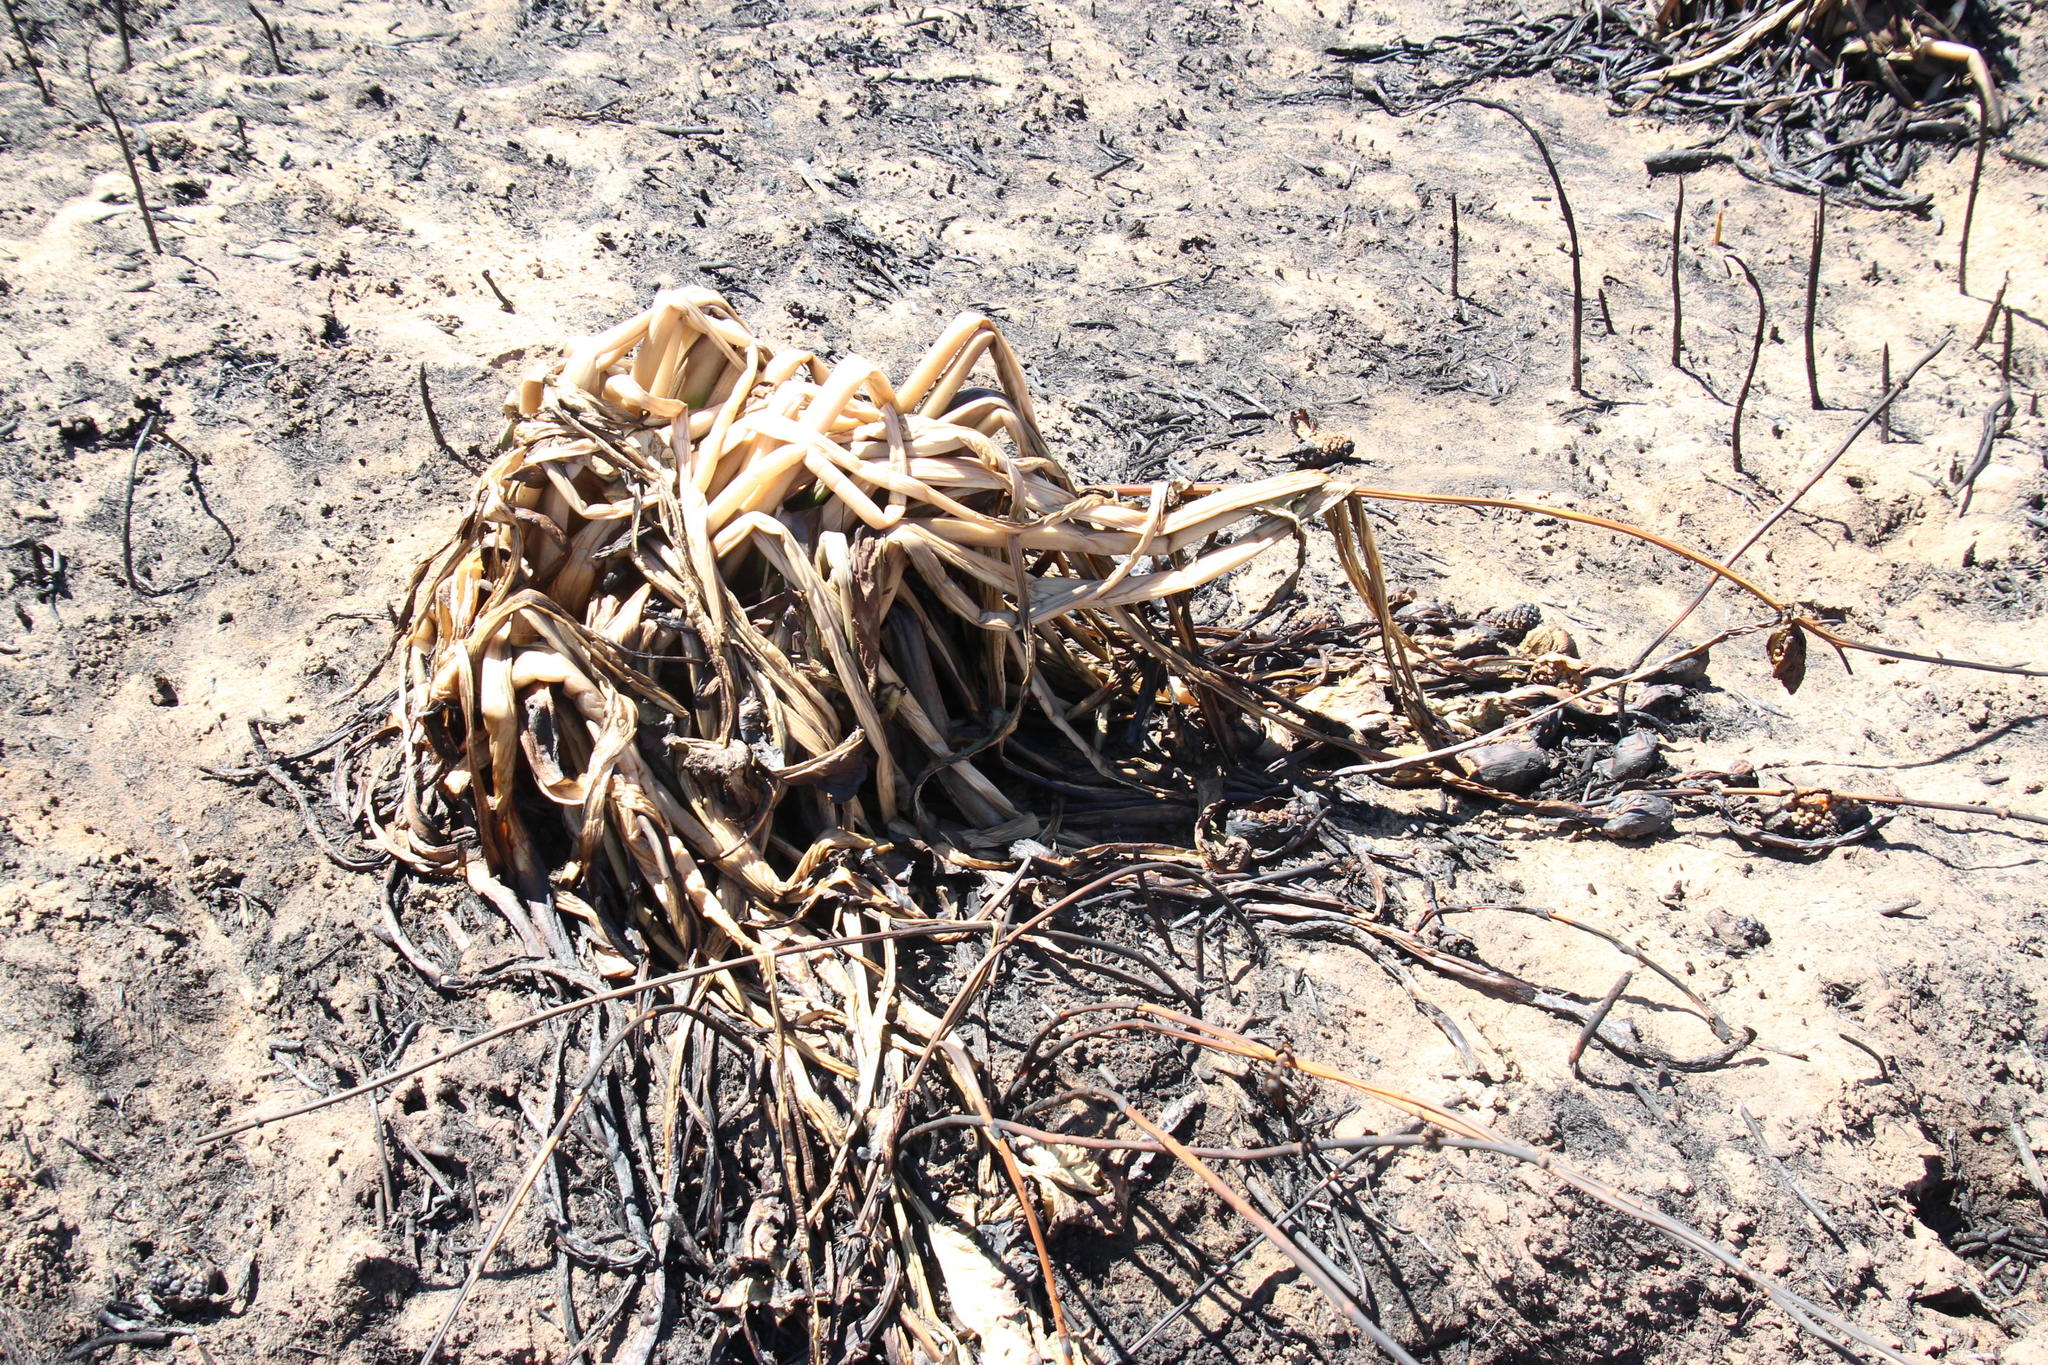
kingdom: Plantae
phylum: Tracheophyta
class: Liliopsida
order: Alismatales
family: Araceae
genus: Zantedeschia
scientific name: Zantedeschia aethiopica
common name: Altar-lily
